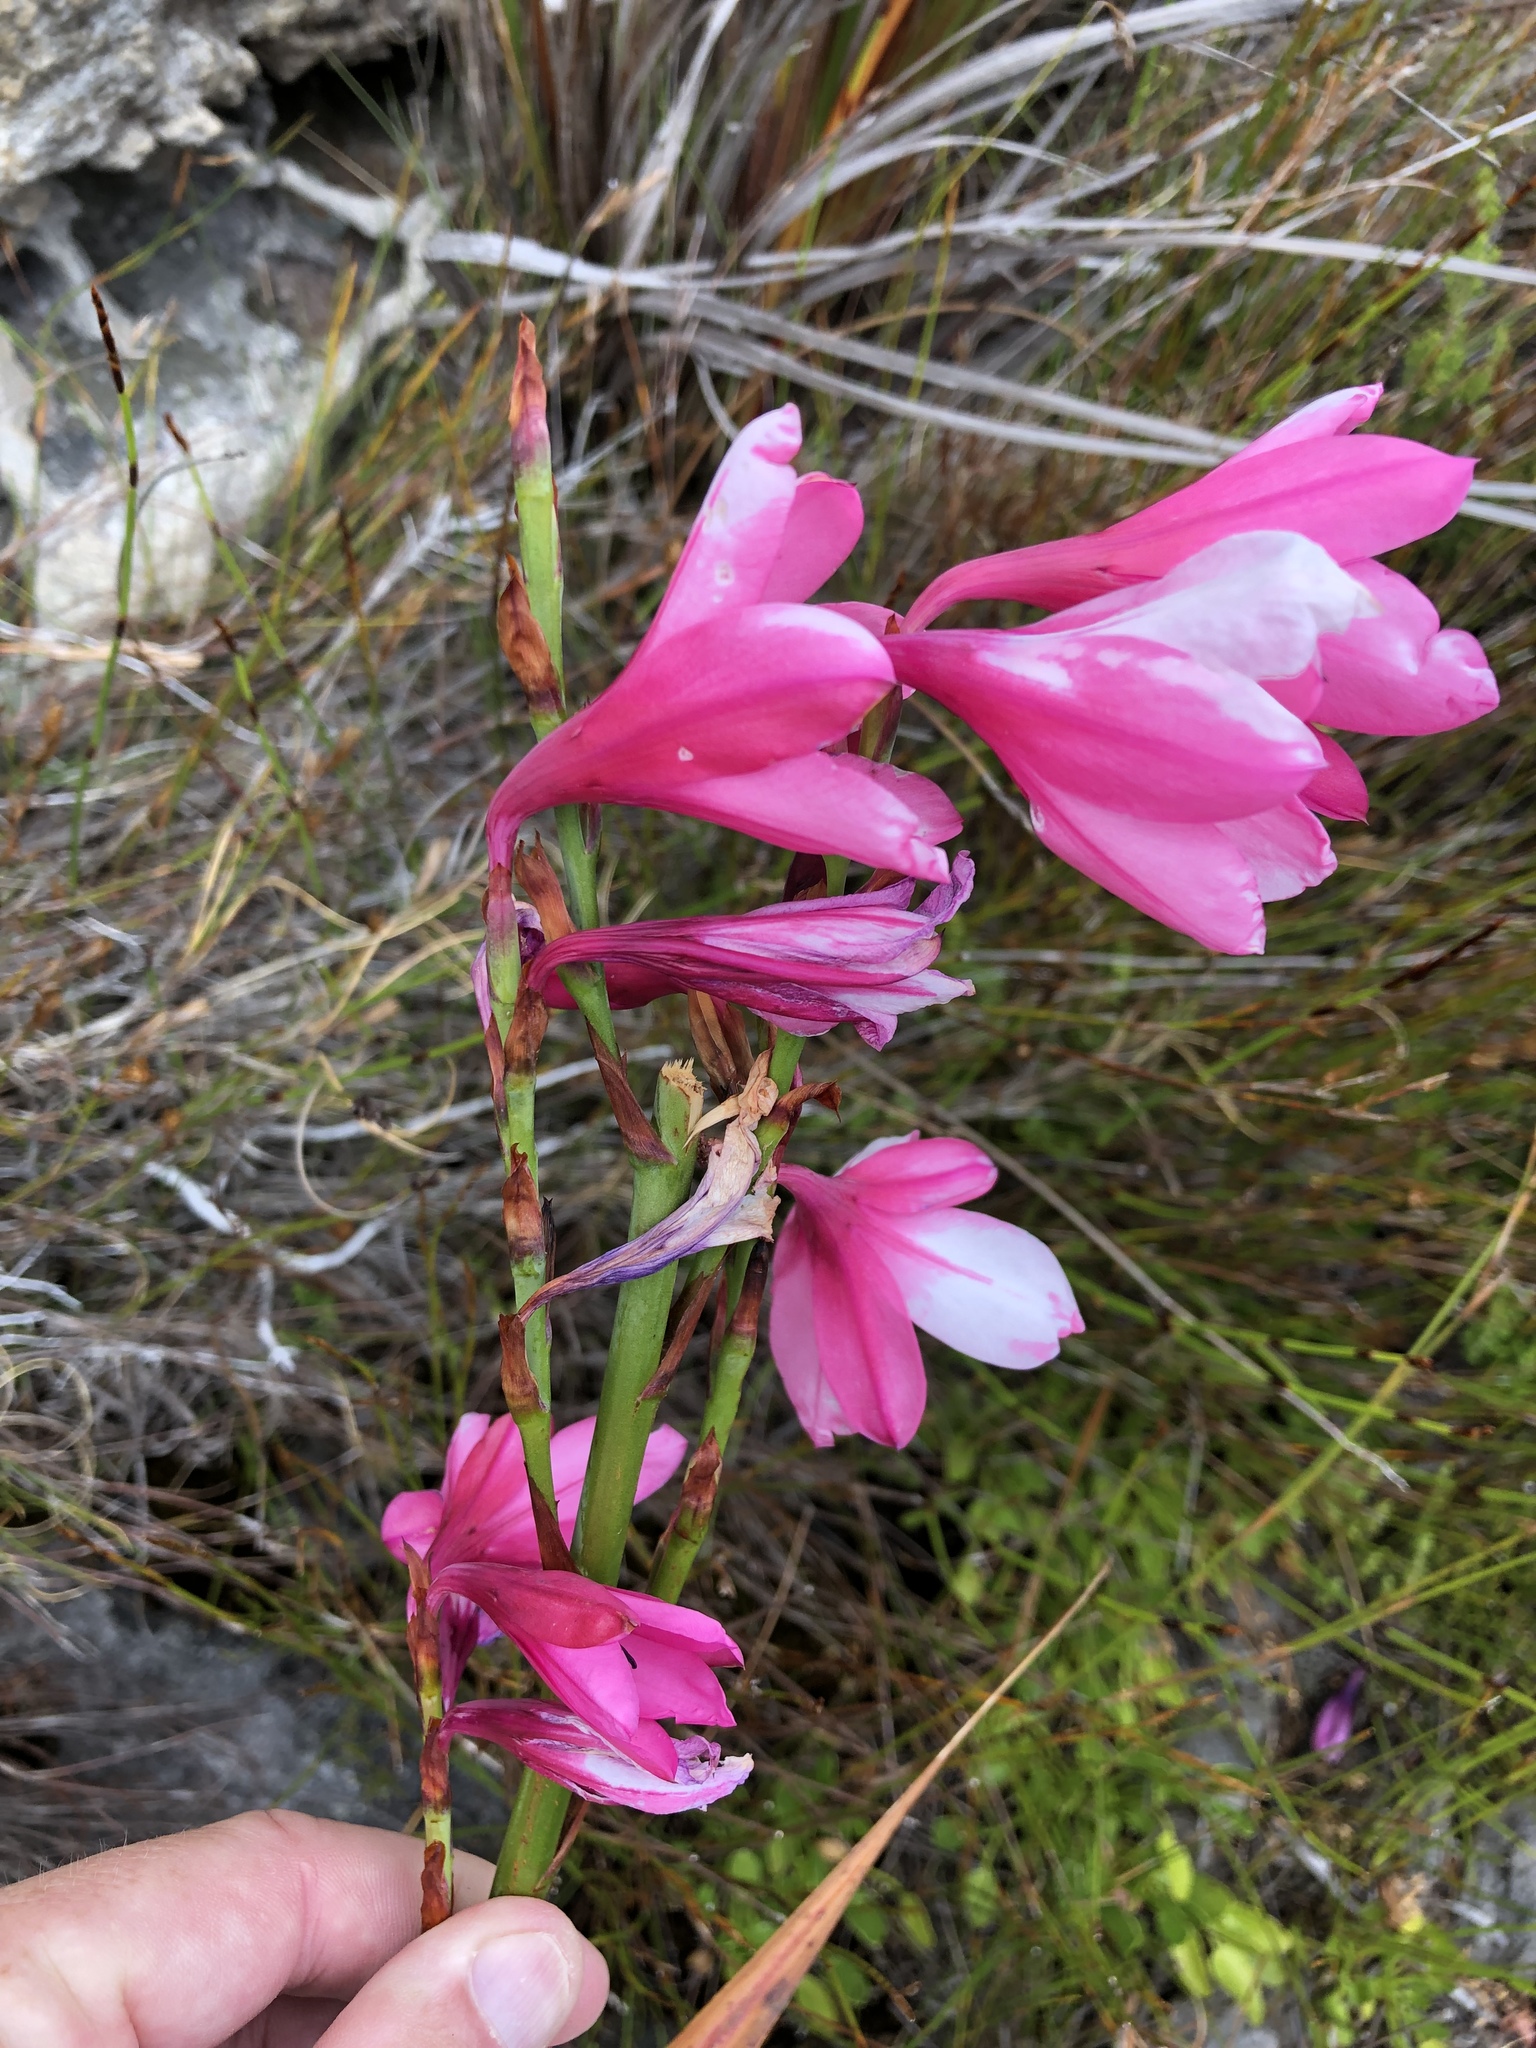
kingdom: Plantae
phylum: Tracheophyta
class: Liliopsida
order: Asparagales
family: Iridaceae
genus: Watsonia
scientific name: Watsonia borbonica
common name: Bugle-lily
